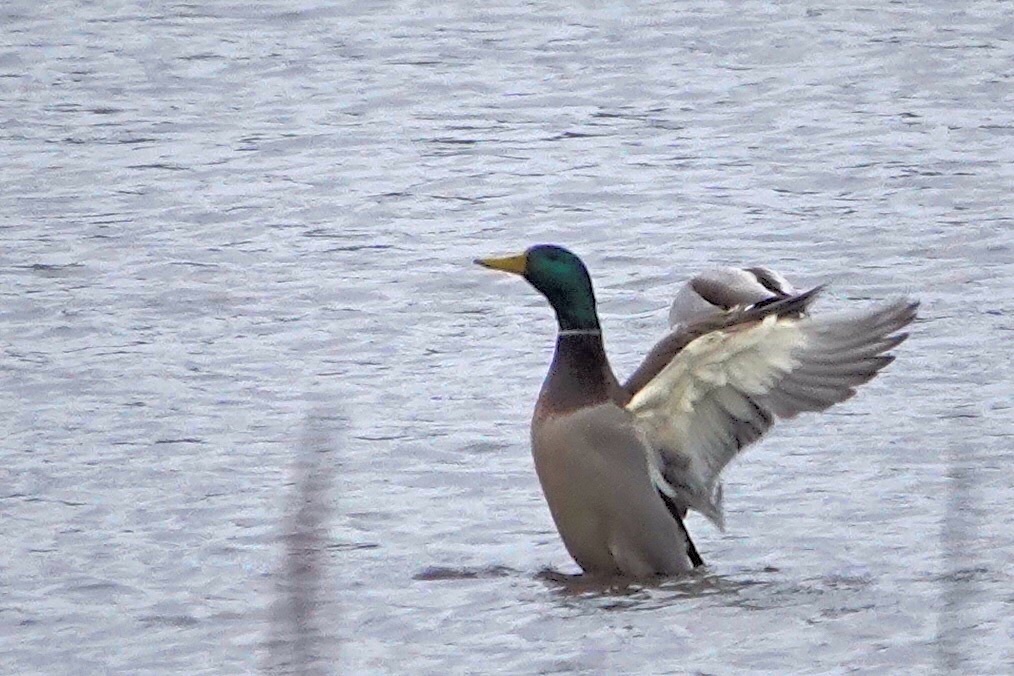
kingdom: Animalia
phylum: Chordata
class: Aves
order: Anseriformes
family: Anatidae
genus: Anas
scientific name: Anas platyrhynchos
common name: Mallard
